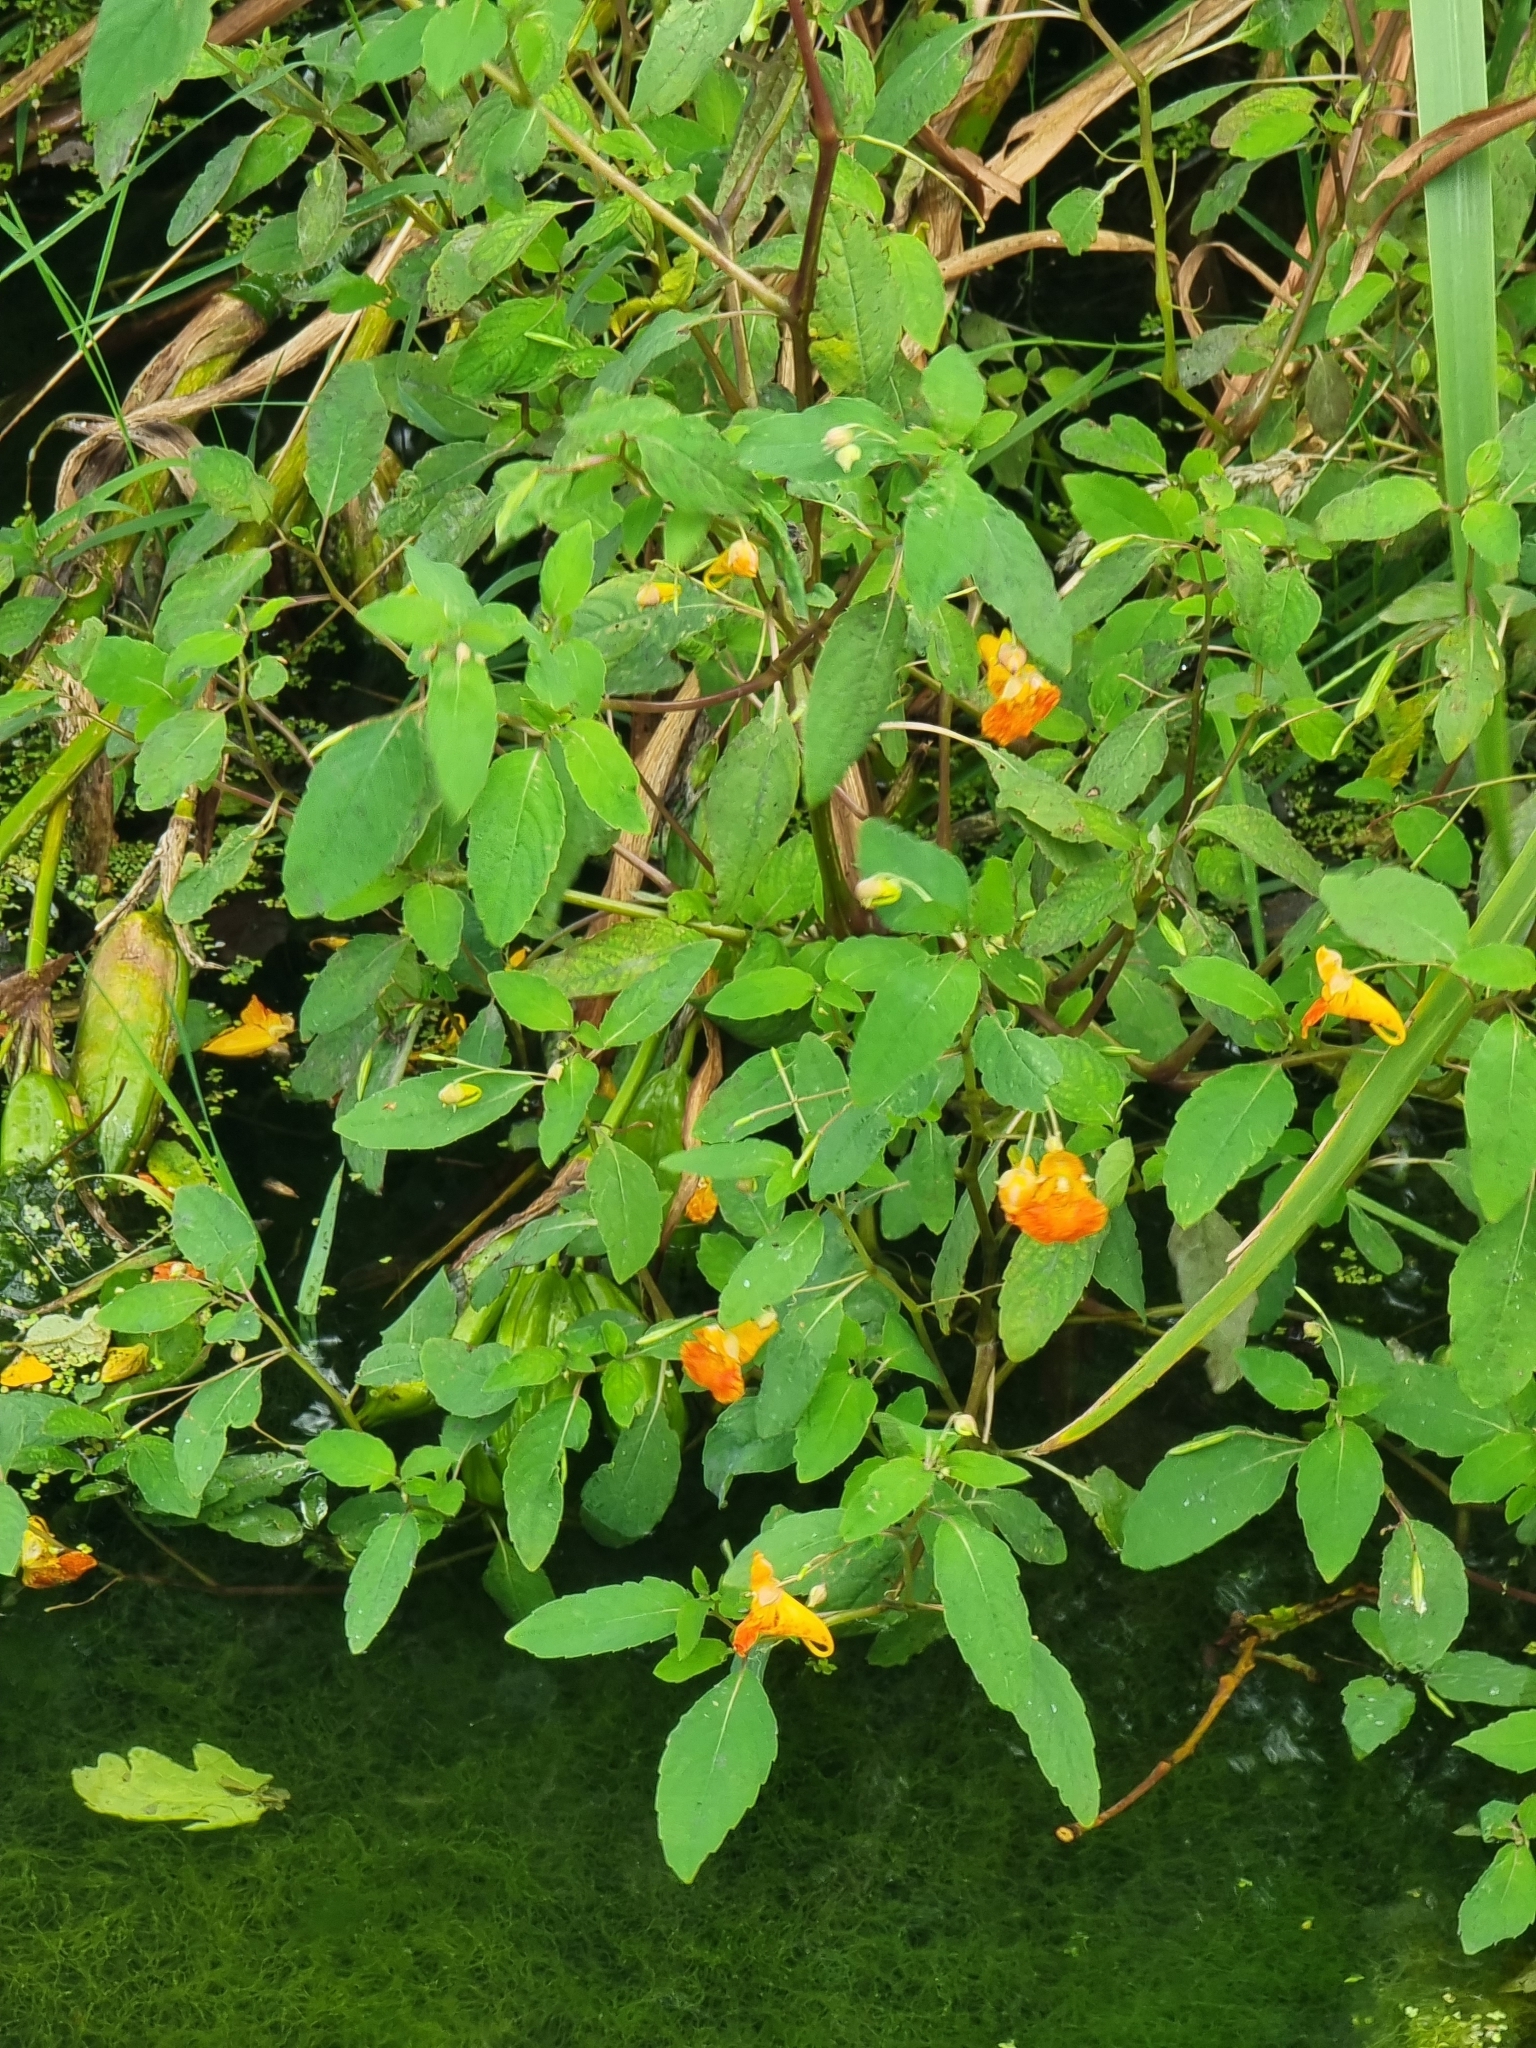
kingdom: Plantae
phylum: Tracheophyta
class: Magnoliopsida
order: Ericales
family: Balsaminaceae
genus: Impatiens
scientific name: Impatiens capensis
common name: Orange balsam
